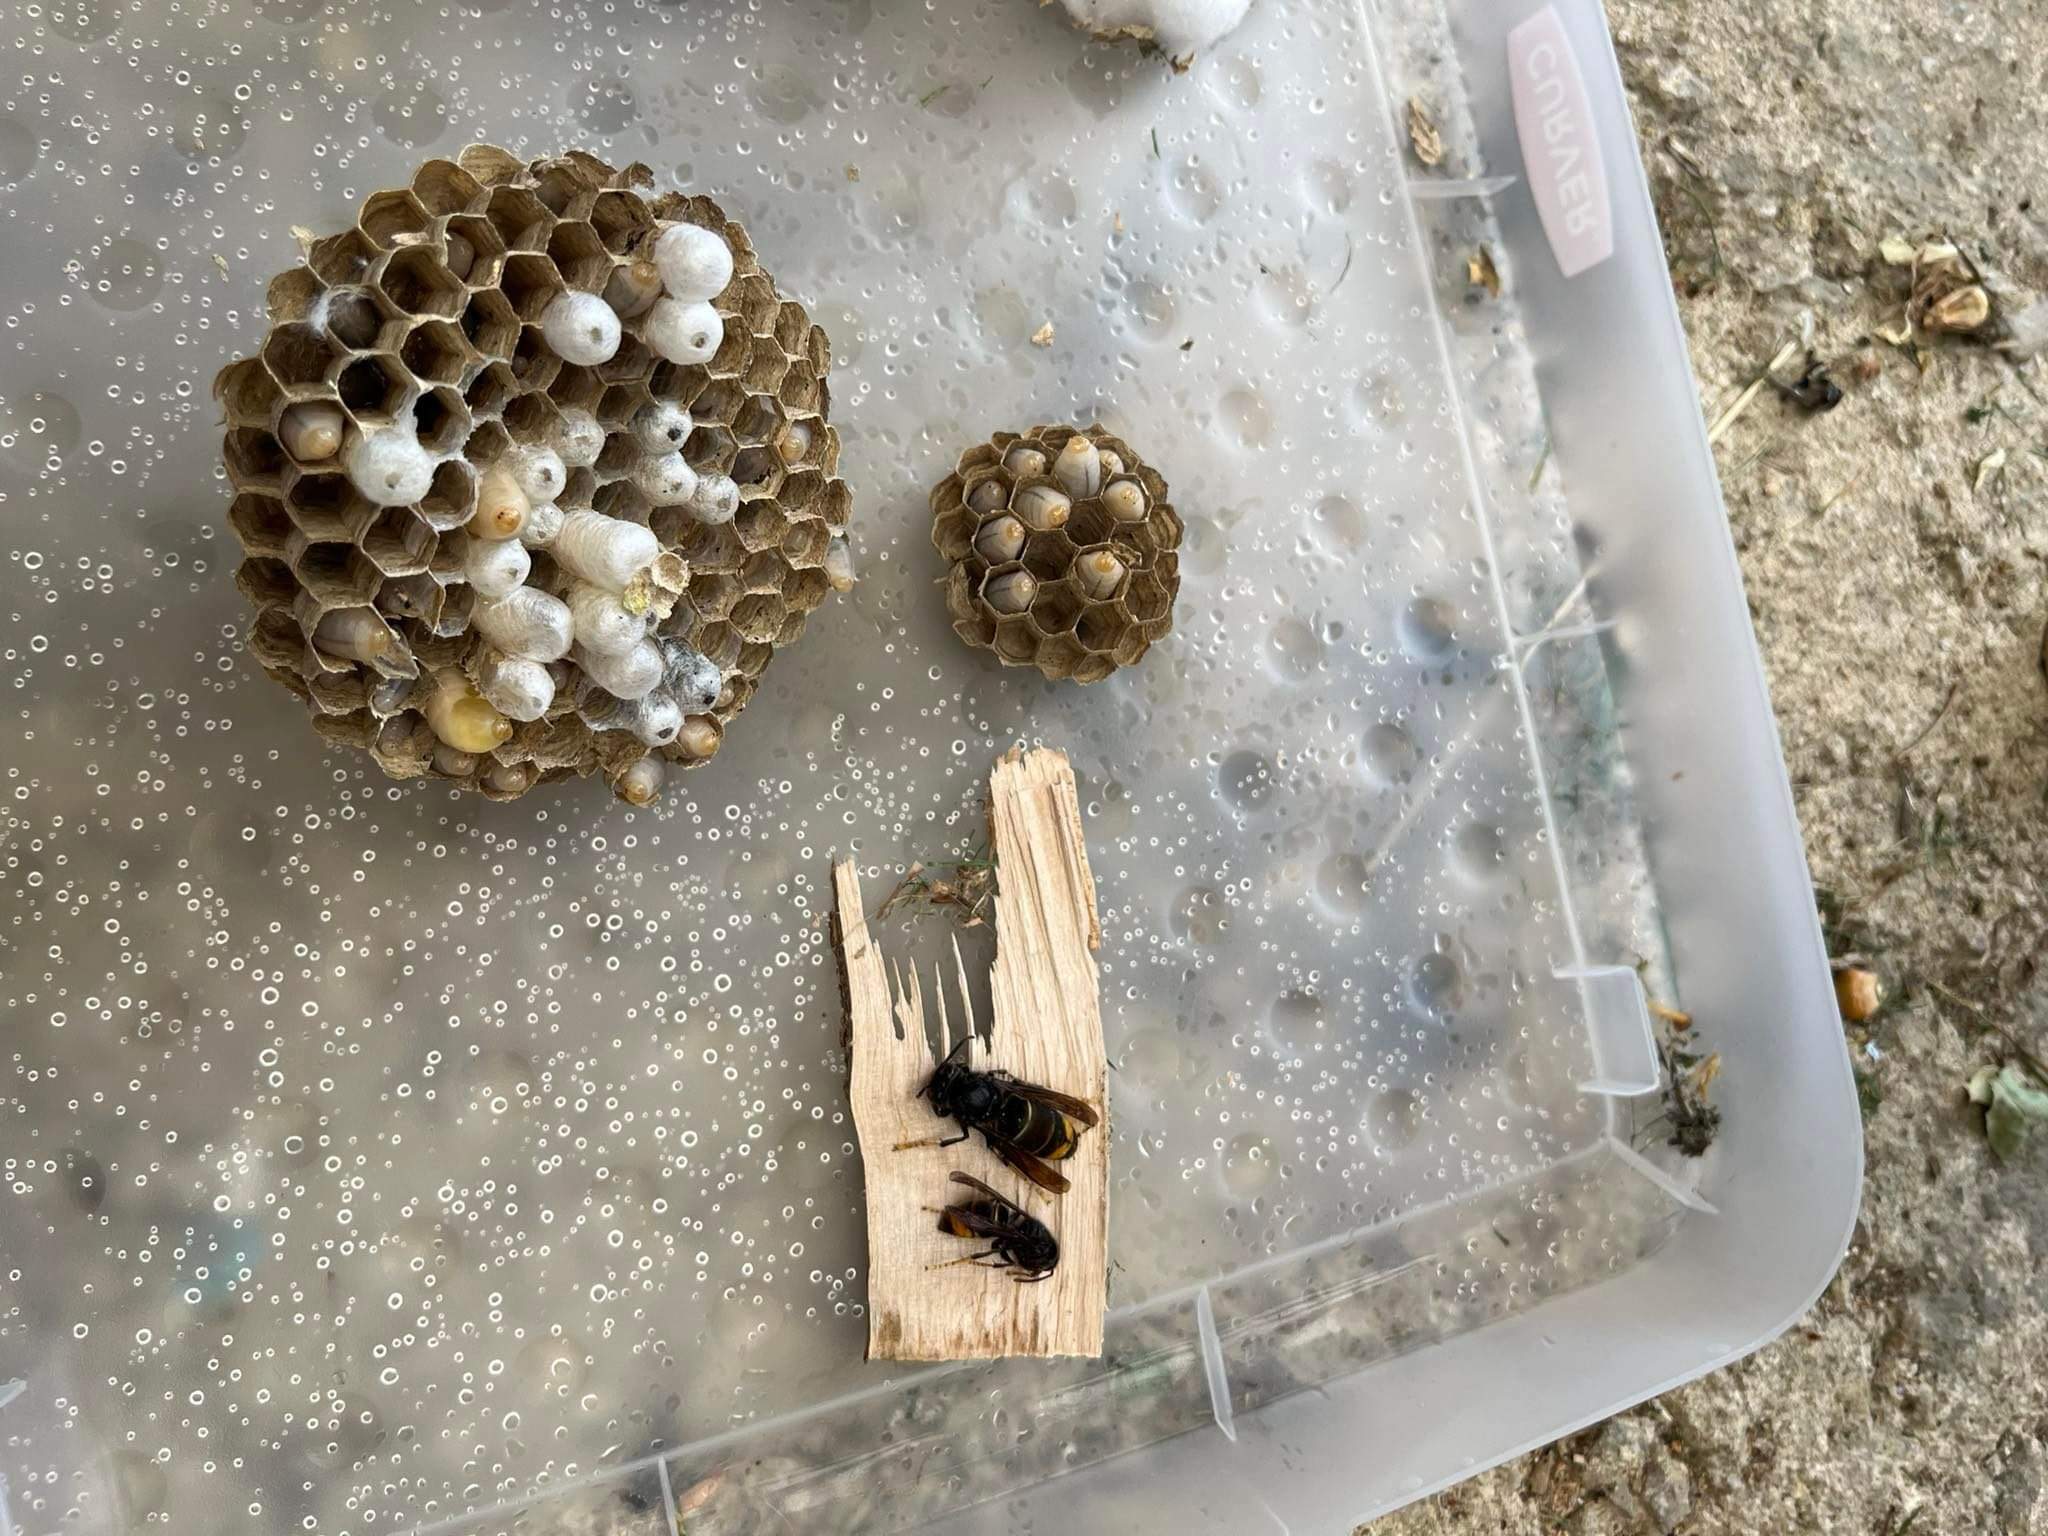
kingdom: Animalia
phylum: Arthropoda
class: Insecta
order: Hymenoptera
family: Vespidae
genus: Vespa
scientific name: Vespa velutina
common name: Asian hornet
